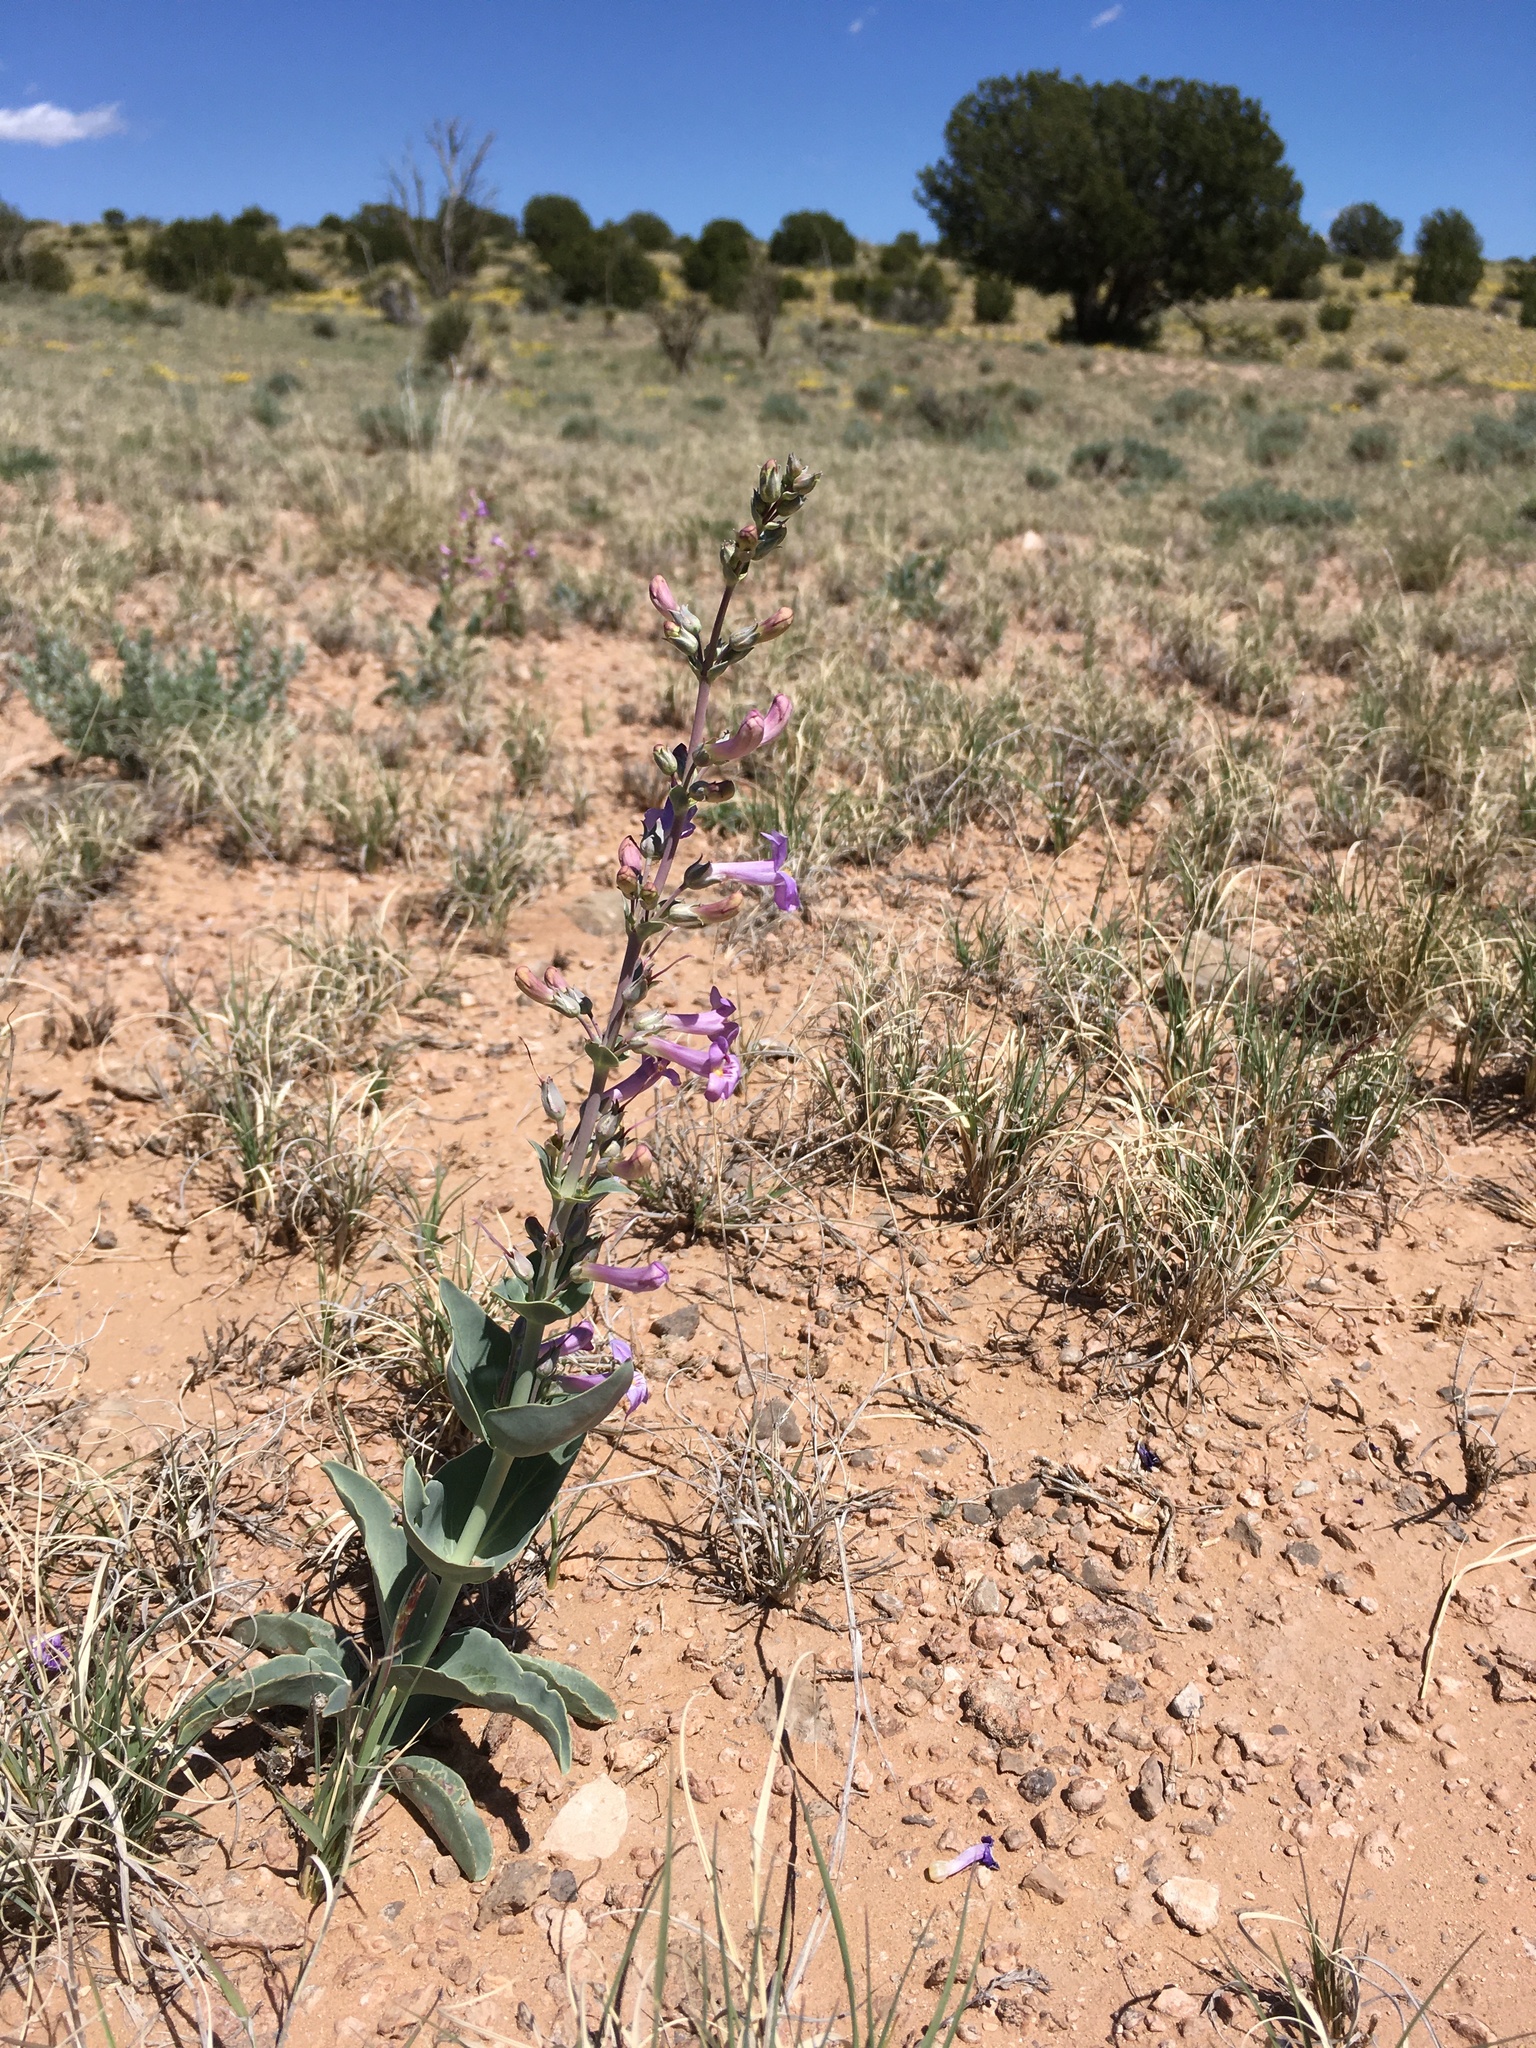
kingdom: Plantae
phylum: Tracheophyta
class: Magnoliopsida
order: Lamiales
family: Plantaginaceae
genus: Penstemon
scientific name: Penstemon fendleri
